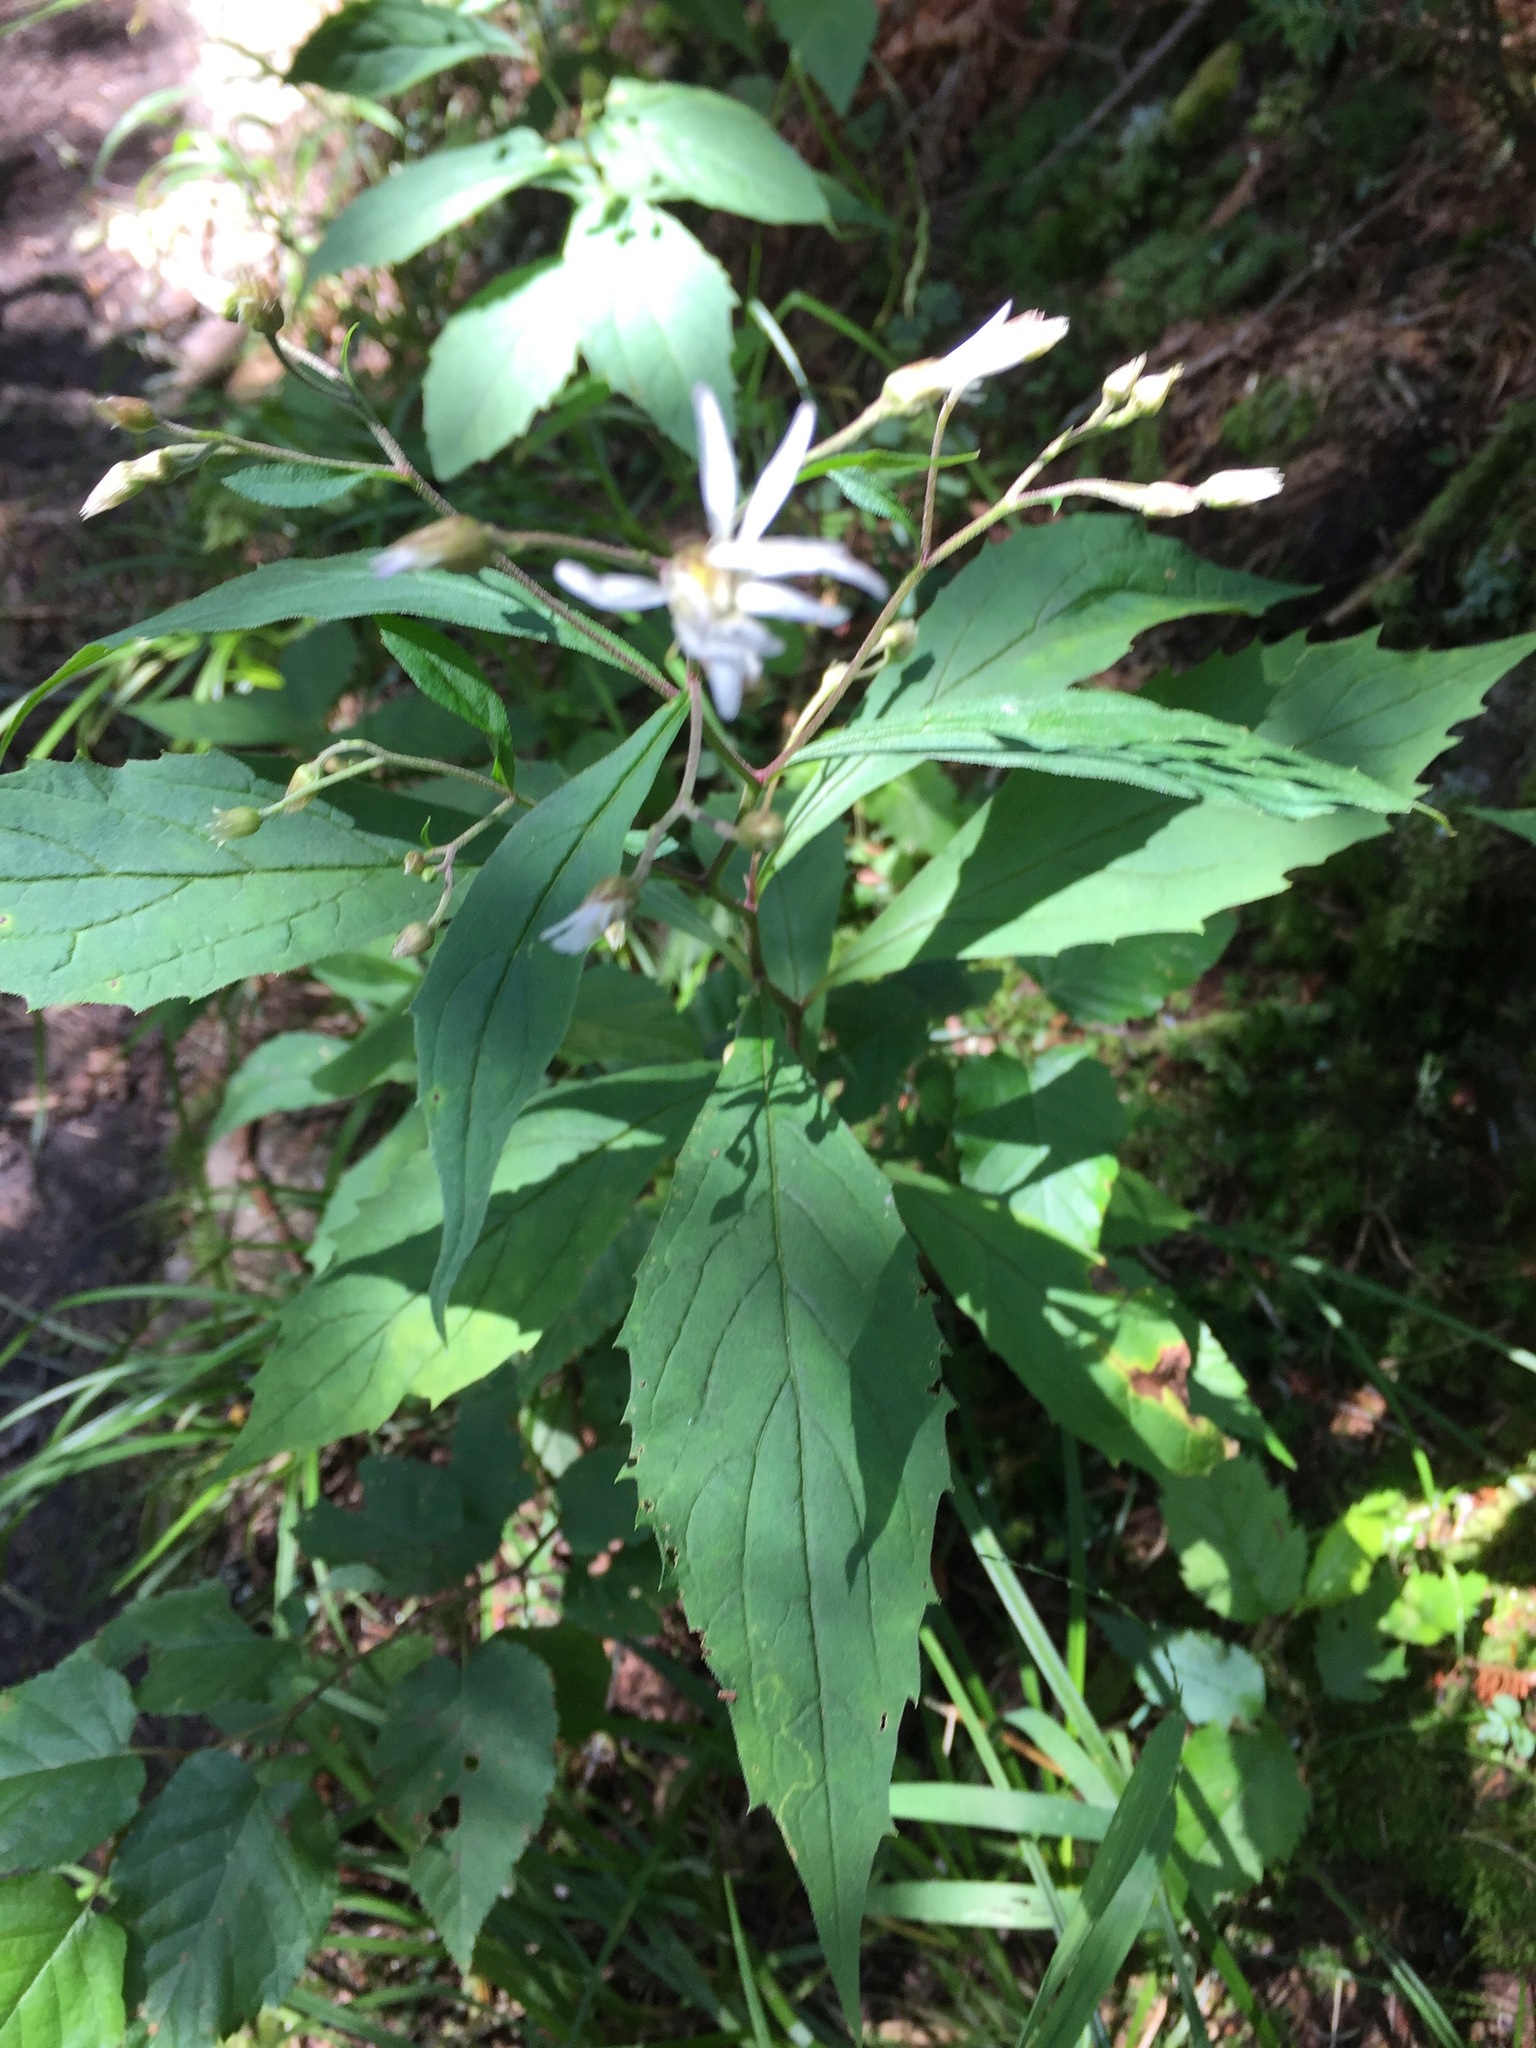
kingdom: Plantae
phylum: Tracheophyta
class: Magnoliopsida
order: Asterales
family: Asteraceae
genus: Oclemena
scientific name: Oclemena acuminata
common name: Mountain aster
